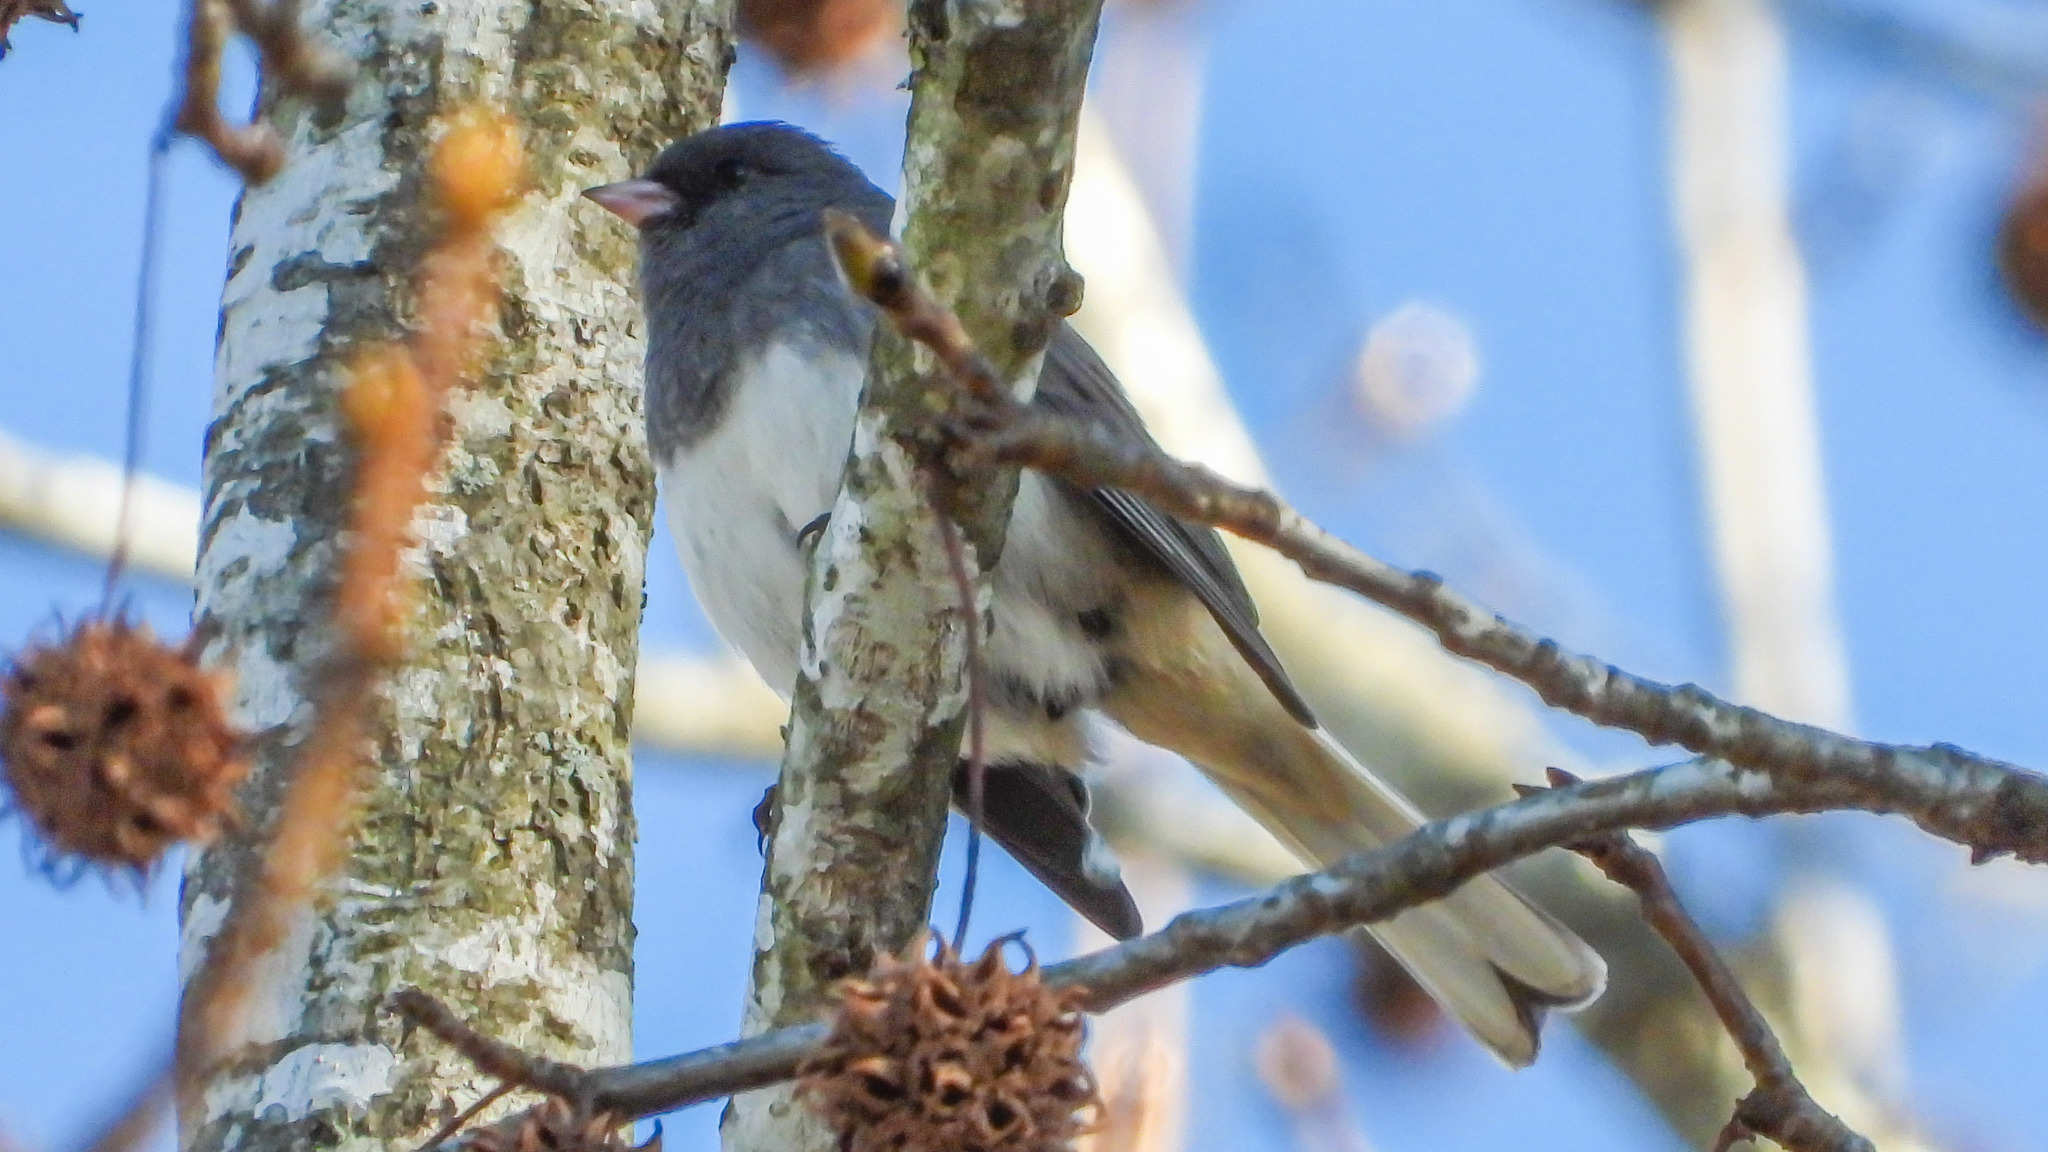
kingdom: Animalia
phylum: Chordata
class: Aves
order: Passeriformes
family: Passerellidae
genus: Junco
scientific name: Junco hyemalis
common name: Dark-eyed junco
